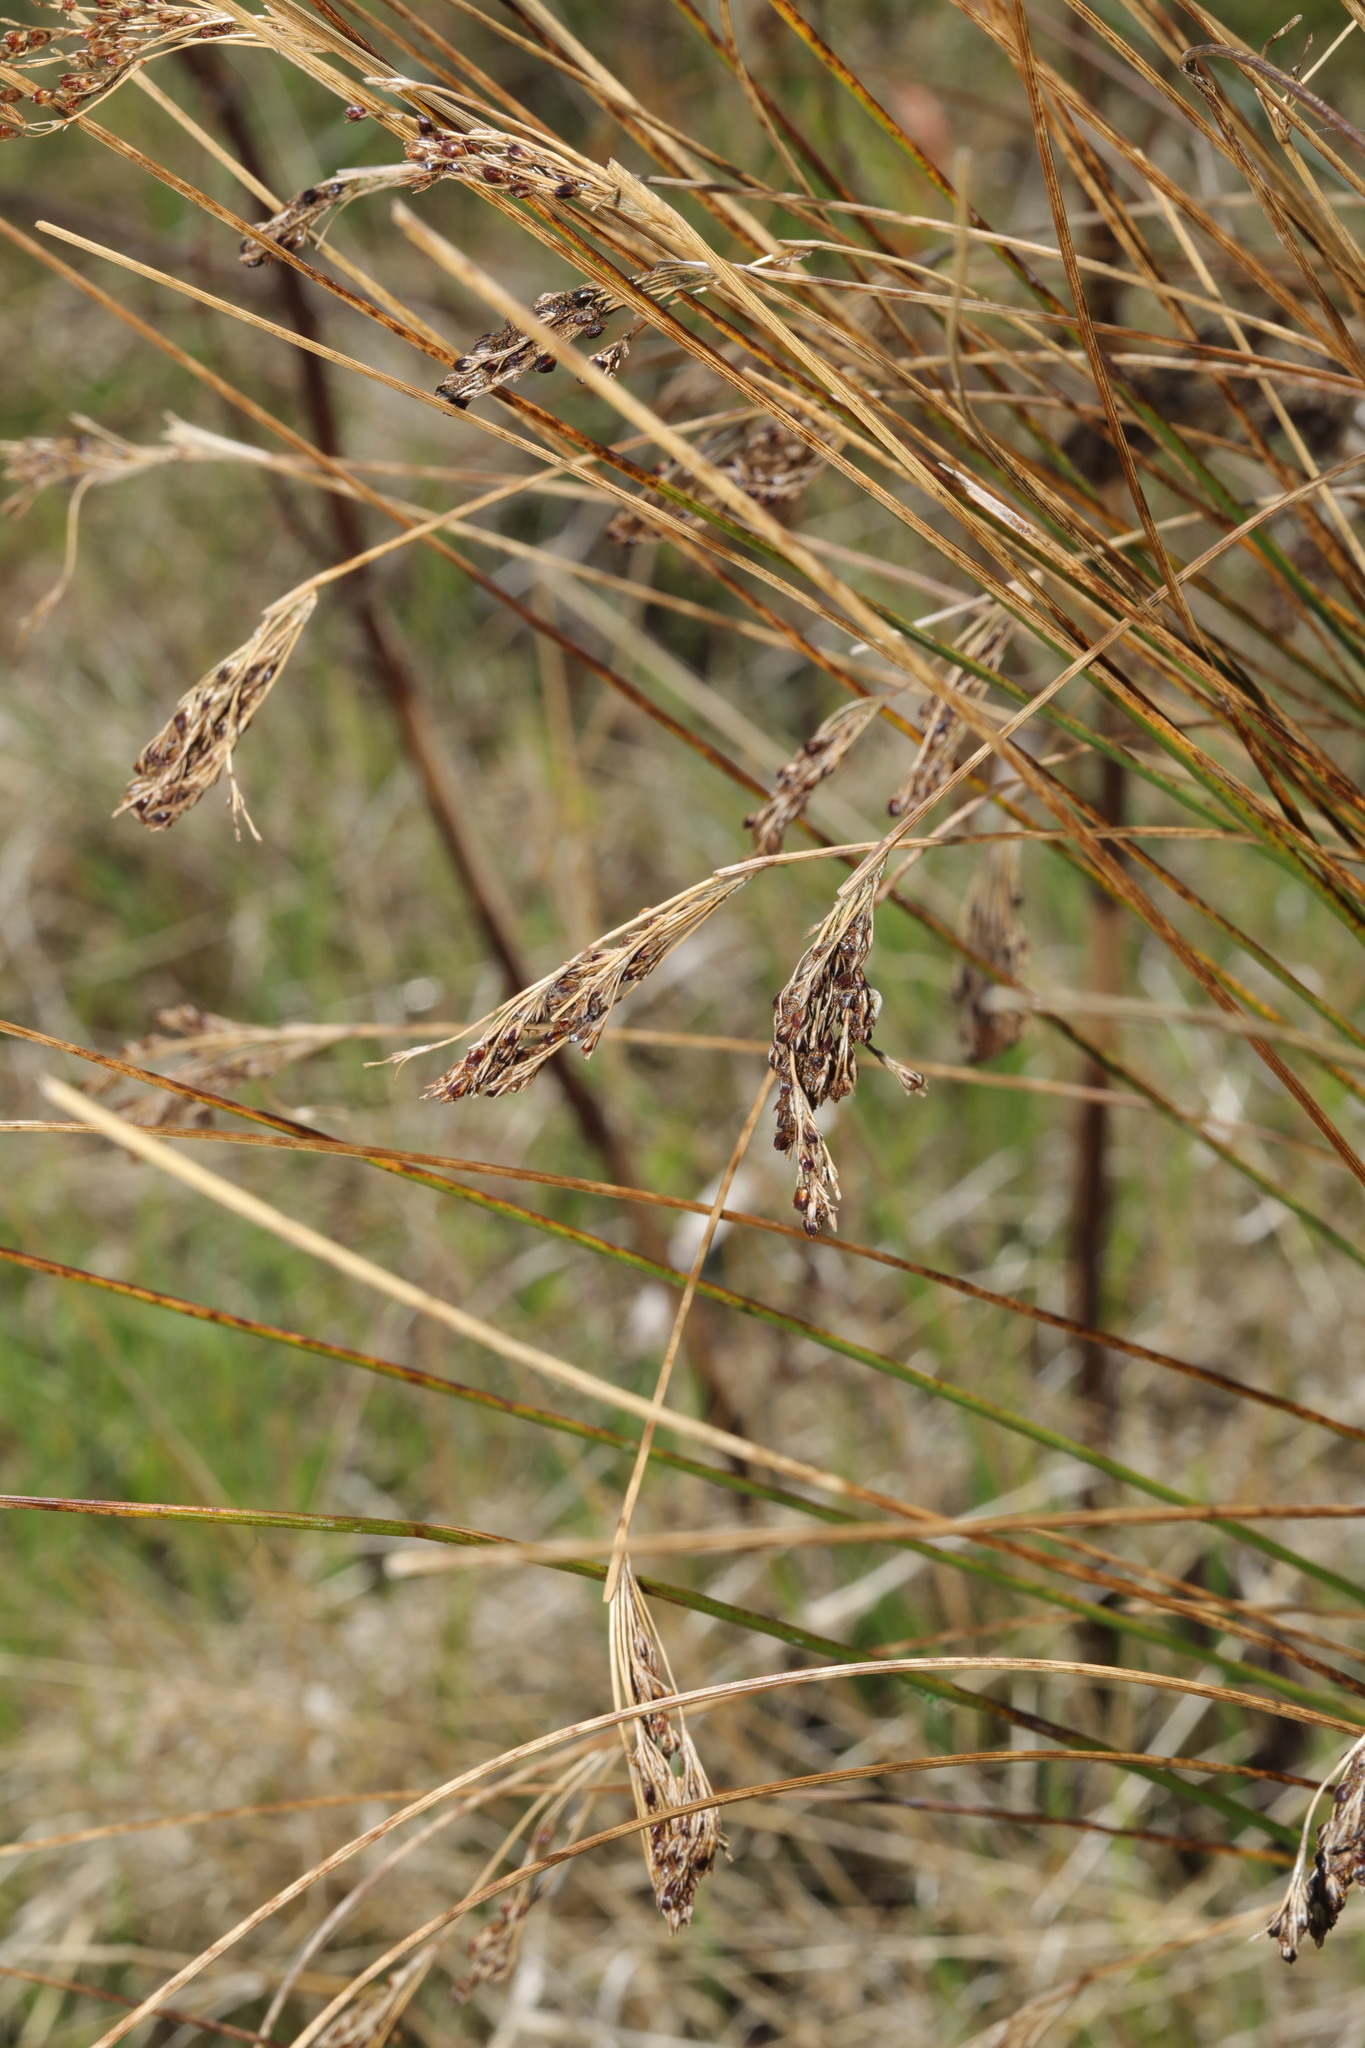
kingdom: Plantae
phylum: Tracheophyta
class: Liliopsida
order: Poales
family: Juncaceae
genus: Juncus
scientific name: Juncus inflexus
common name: Hard rush
